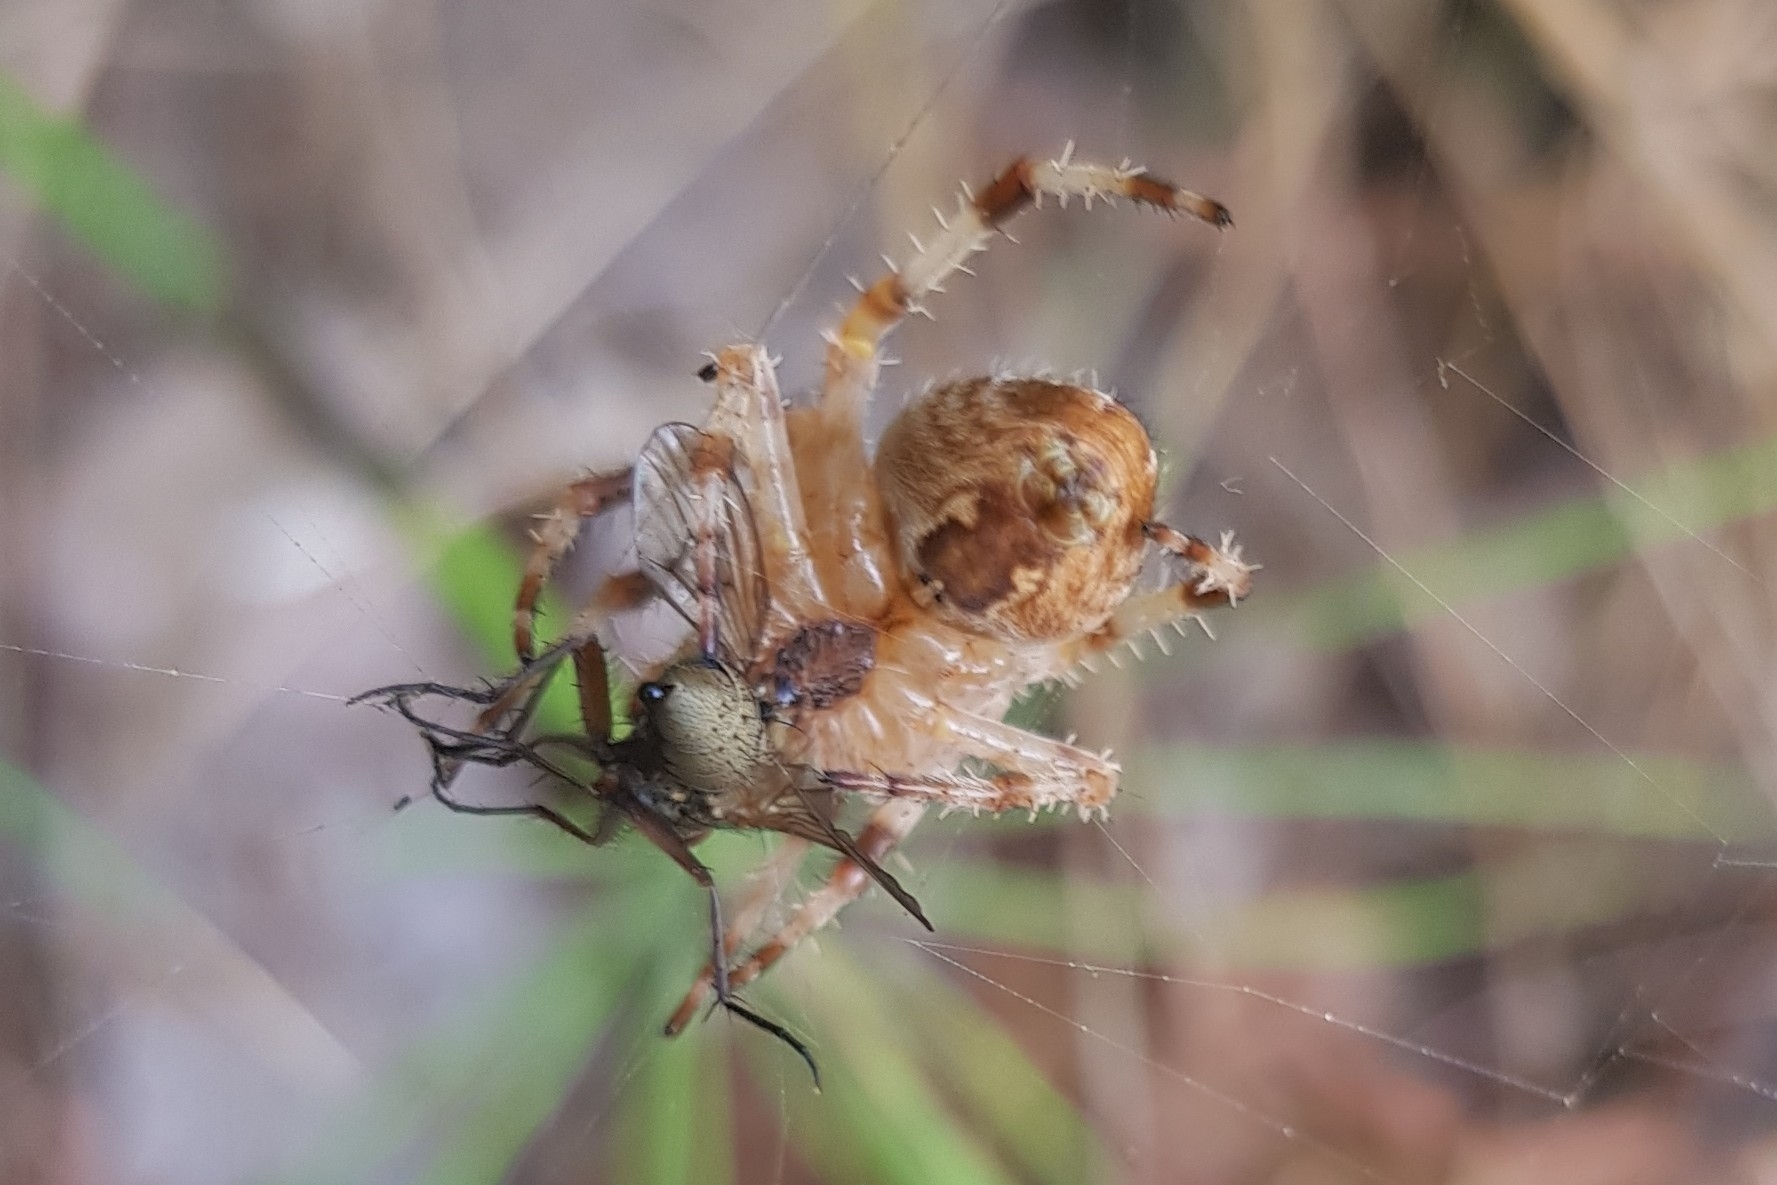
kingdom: Animalia
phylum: Arthropoda
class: Arachnida
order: Araneae
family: Araneidae
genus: Araneus
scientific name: Araneus diadematus
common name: Cross orbweaver
